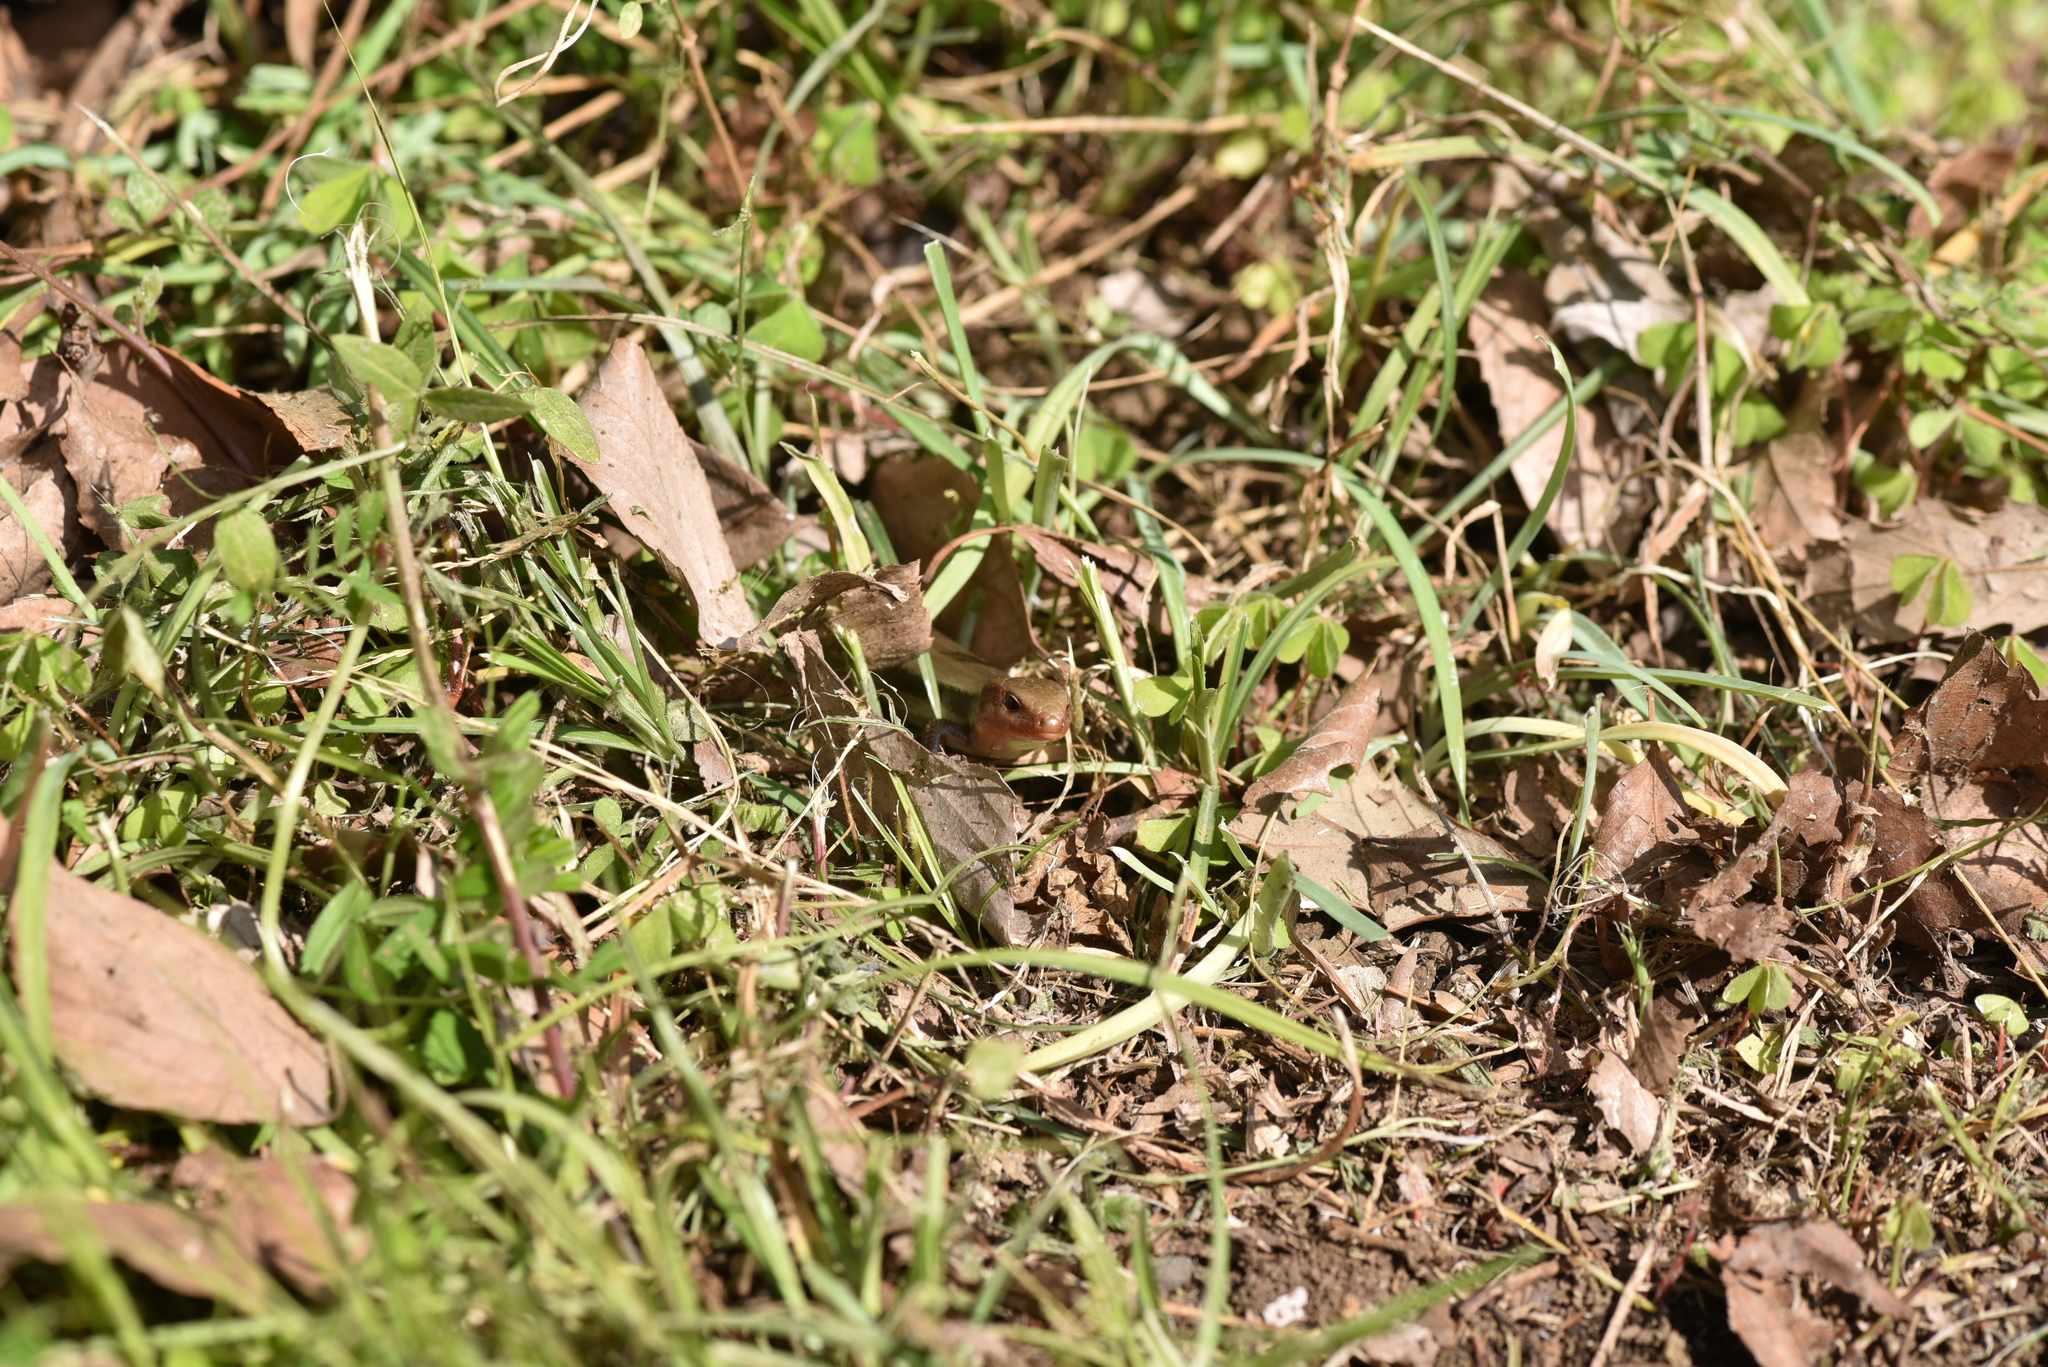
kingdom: Animalia
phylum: Chordata
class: Squamata
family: Scincidae
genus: Plestiodon
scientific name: Plestiodon finitimus
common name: Far eastern skink
